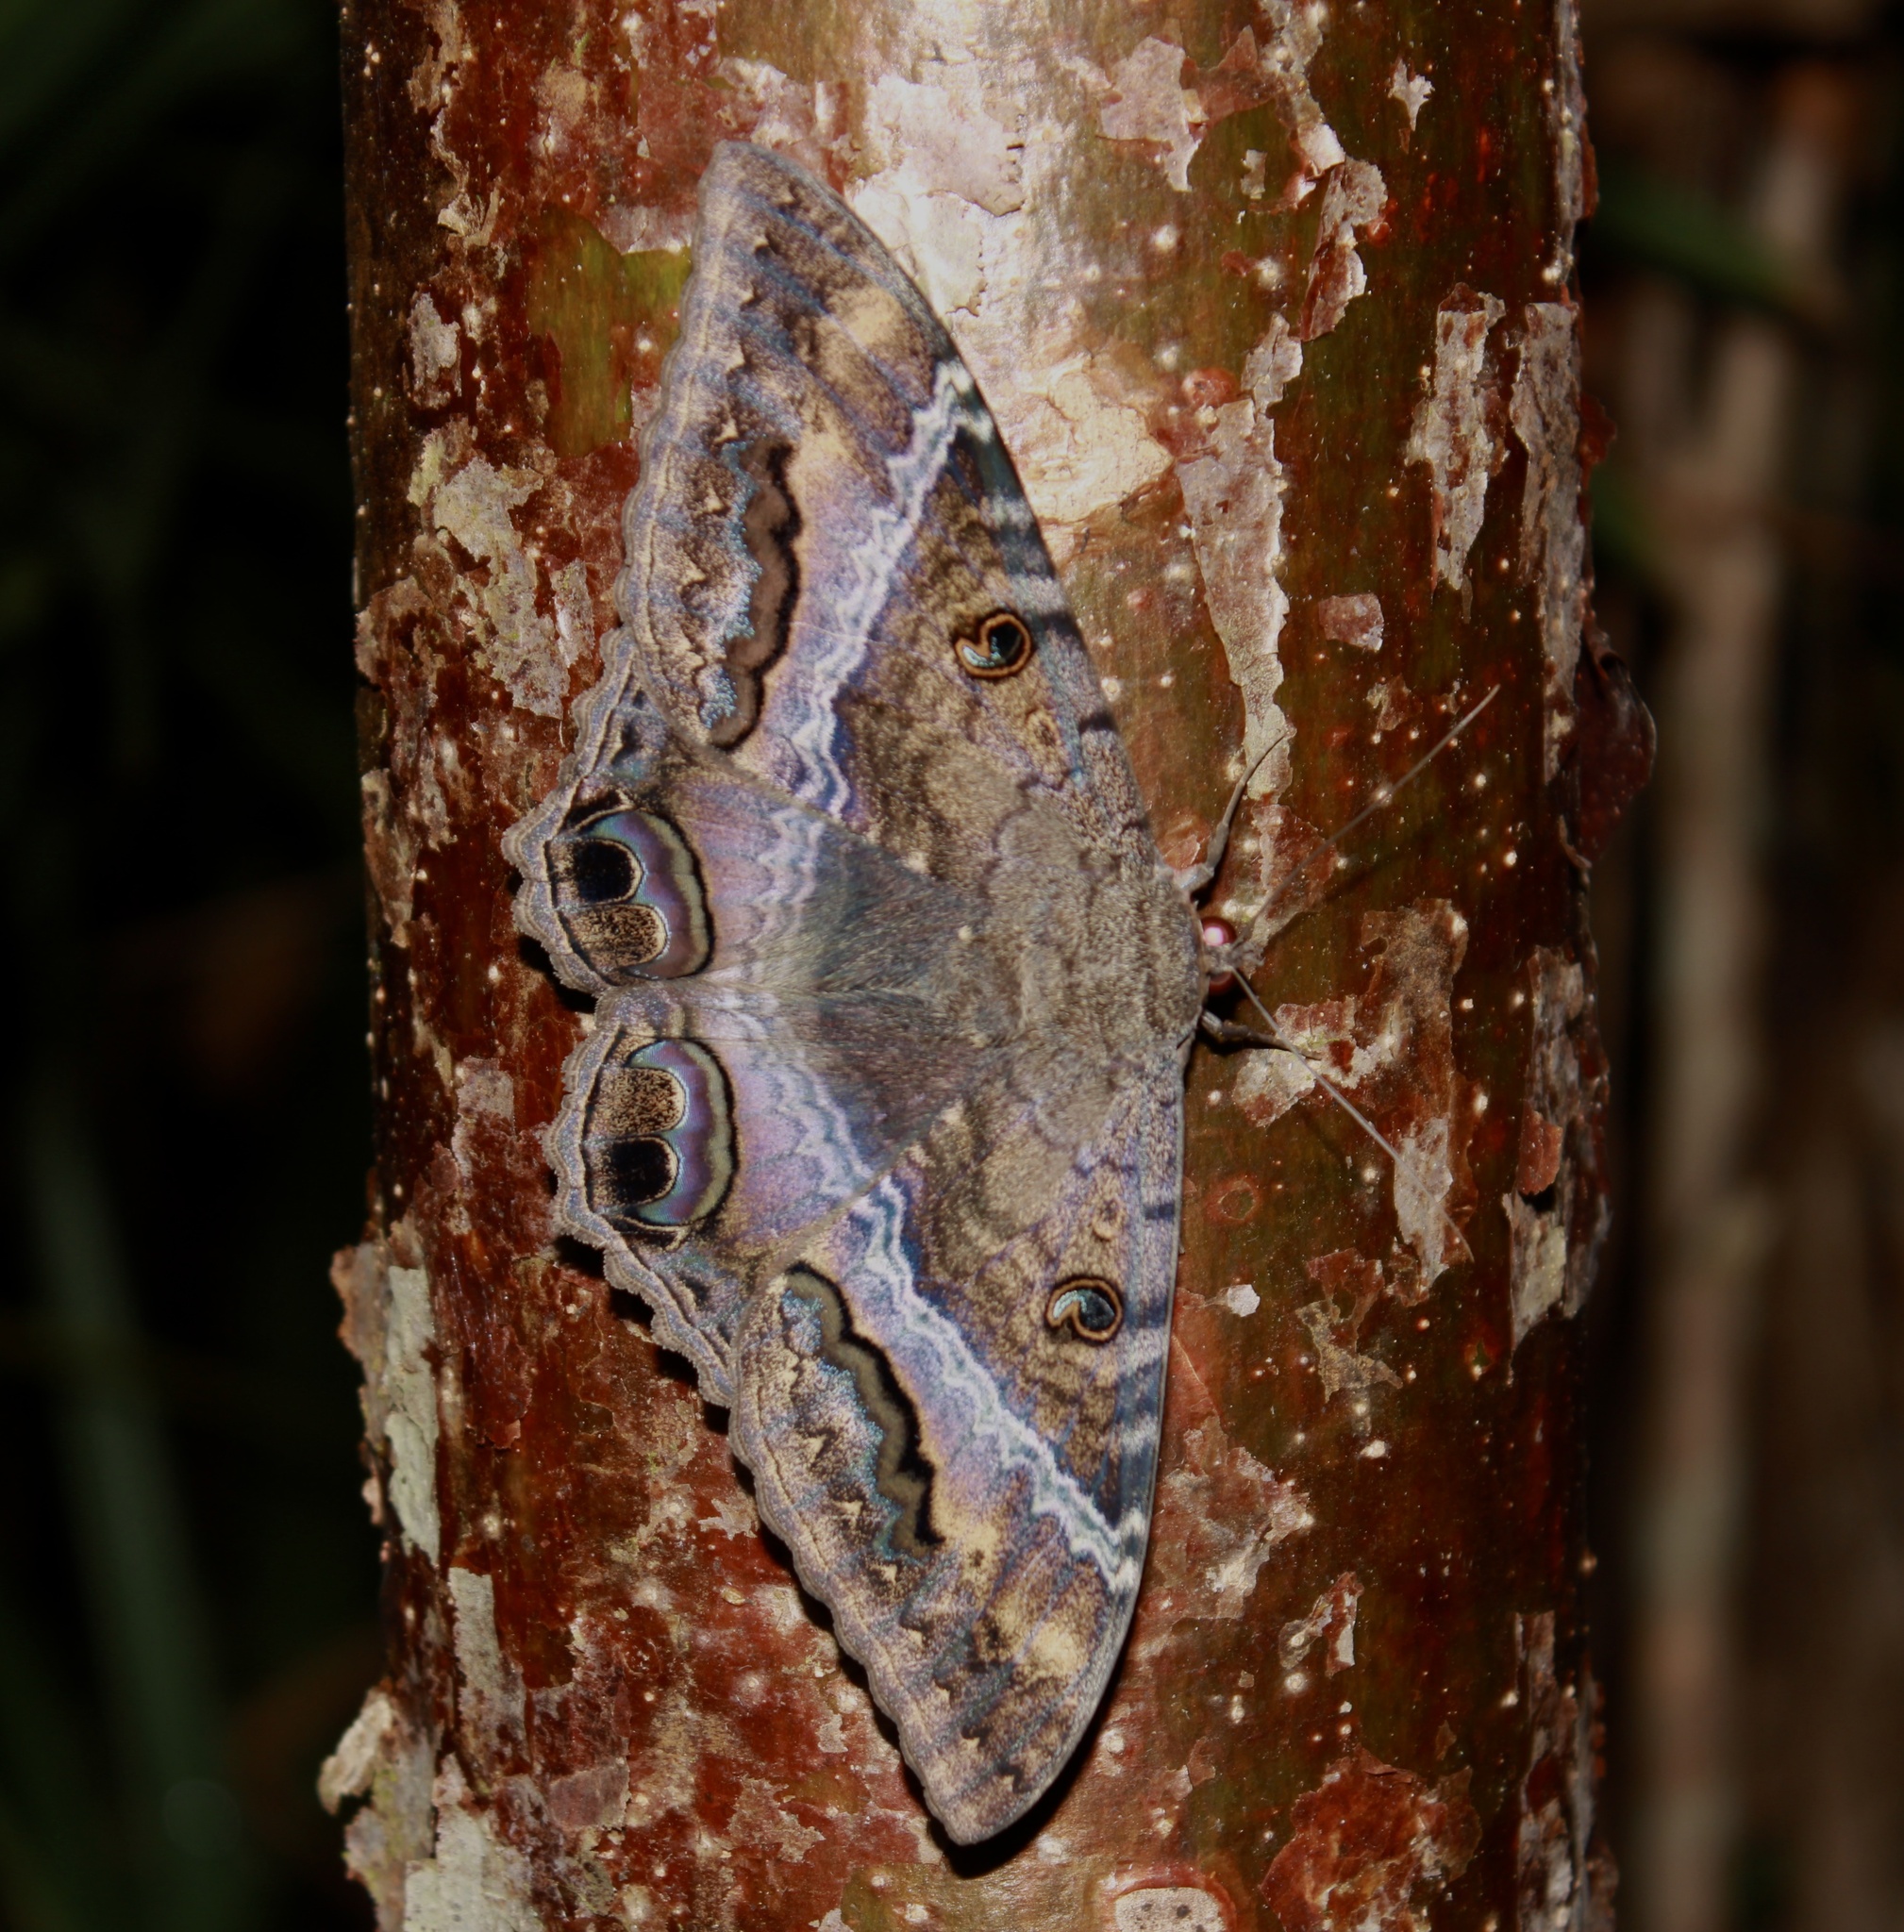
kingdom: Animalia
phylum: Arthropoda
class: Insecta
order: Lepidoptera
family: Erebidae
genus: Ascalapha
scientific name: Ascalapha odorata
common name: Black witch
